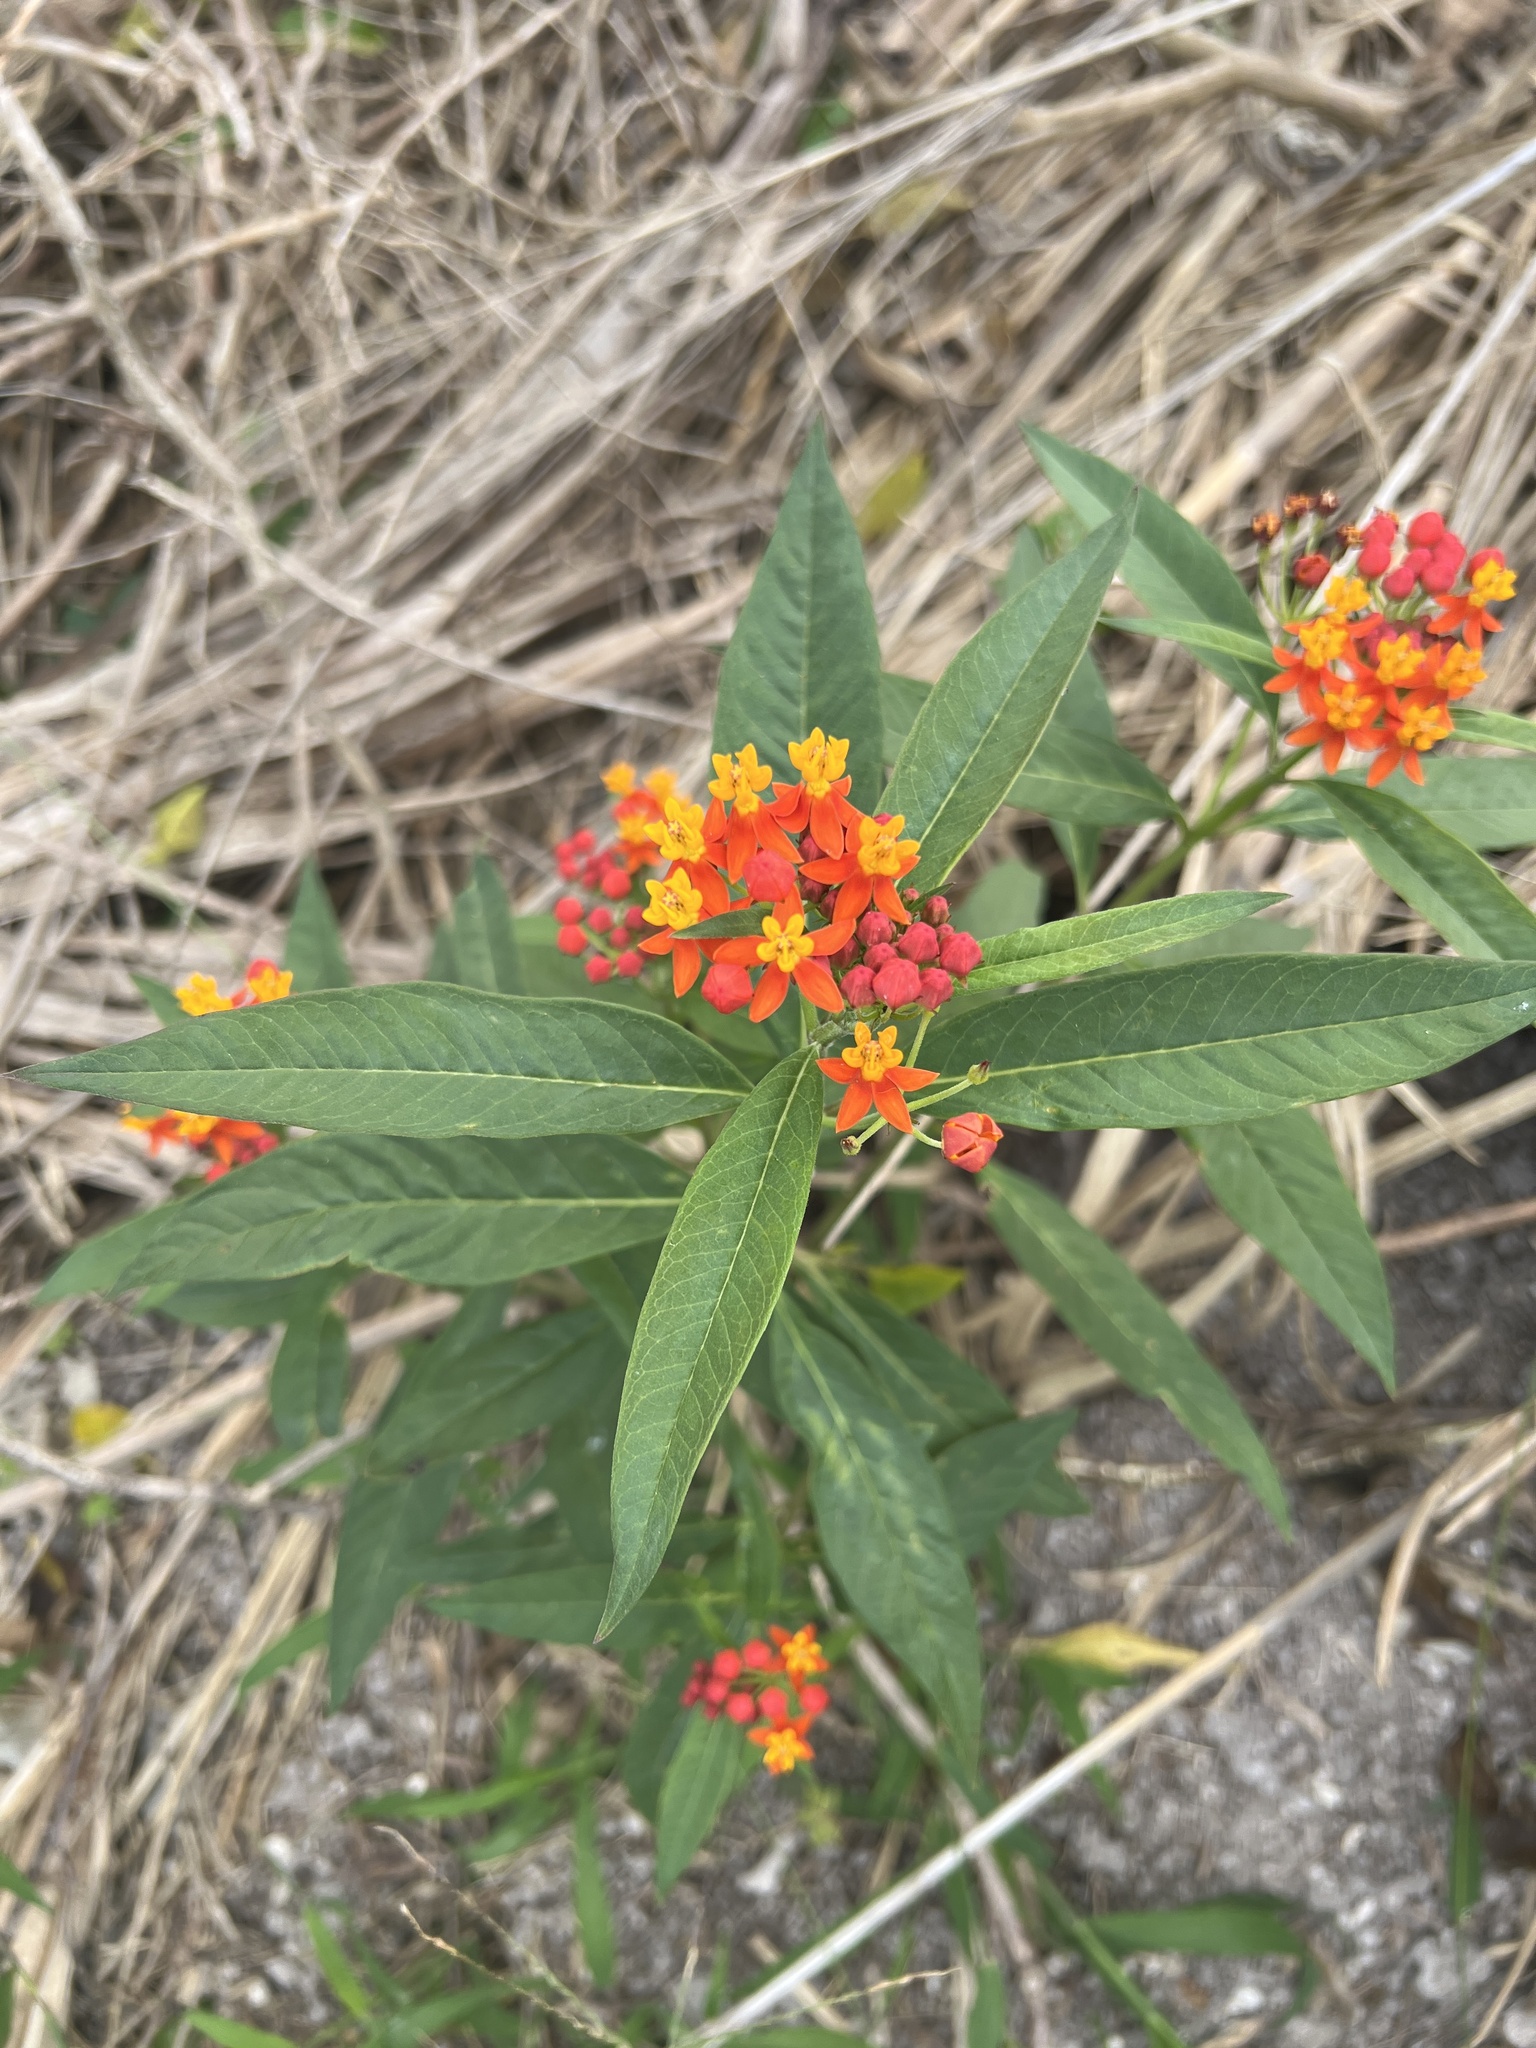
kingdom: Plantae
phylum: Tracheophyta
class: Magnoliopsida
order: Gentianales
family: Apocynaceae
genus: Asclepias
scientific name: Asclepias curassavica
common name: Bloodflower
